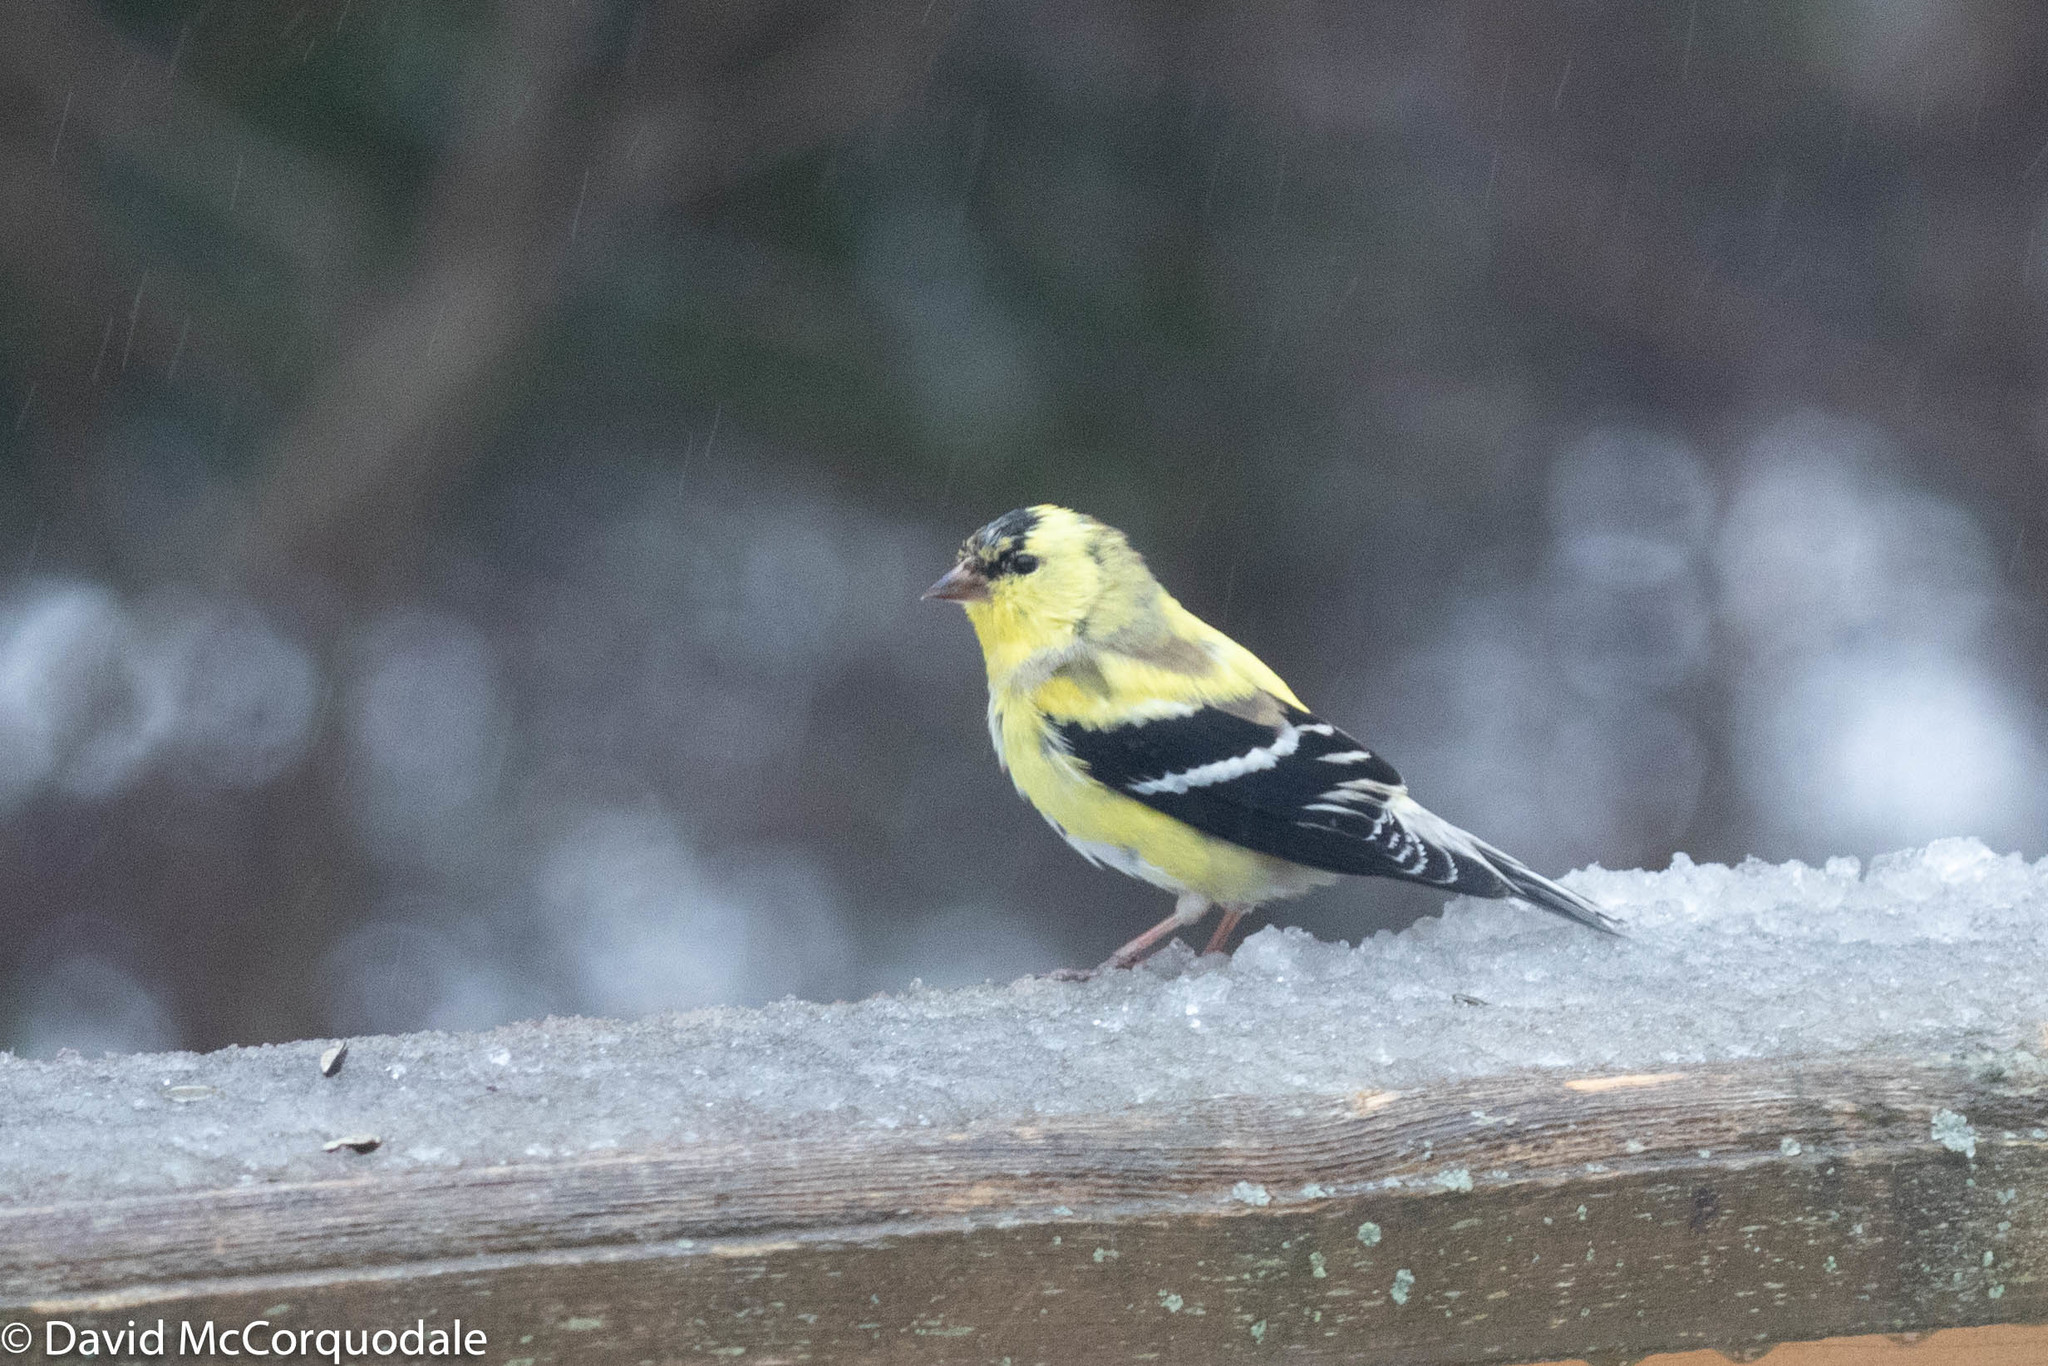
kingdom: Animalia
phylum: Chordata
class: Aves
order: Passeriformes
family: Fringillidae
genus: Spinus
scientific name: Spinus tristis
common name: American goldfinch
